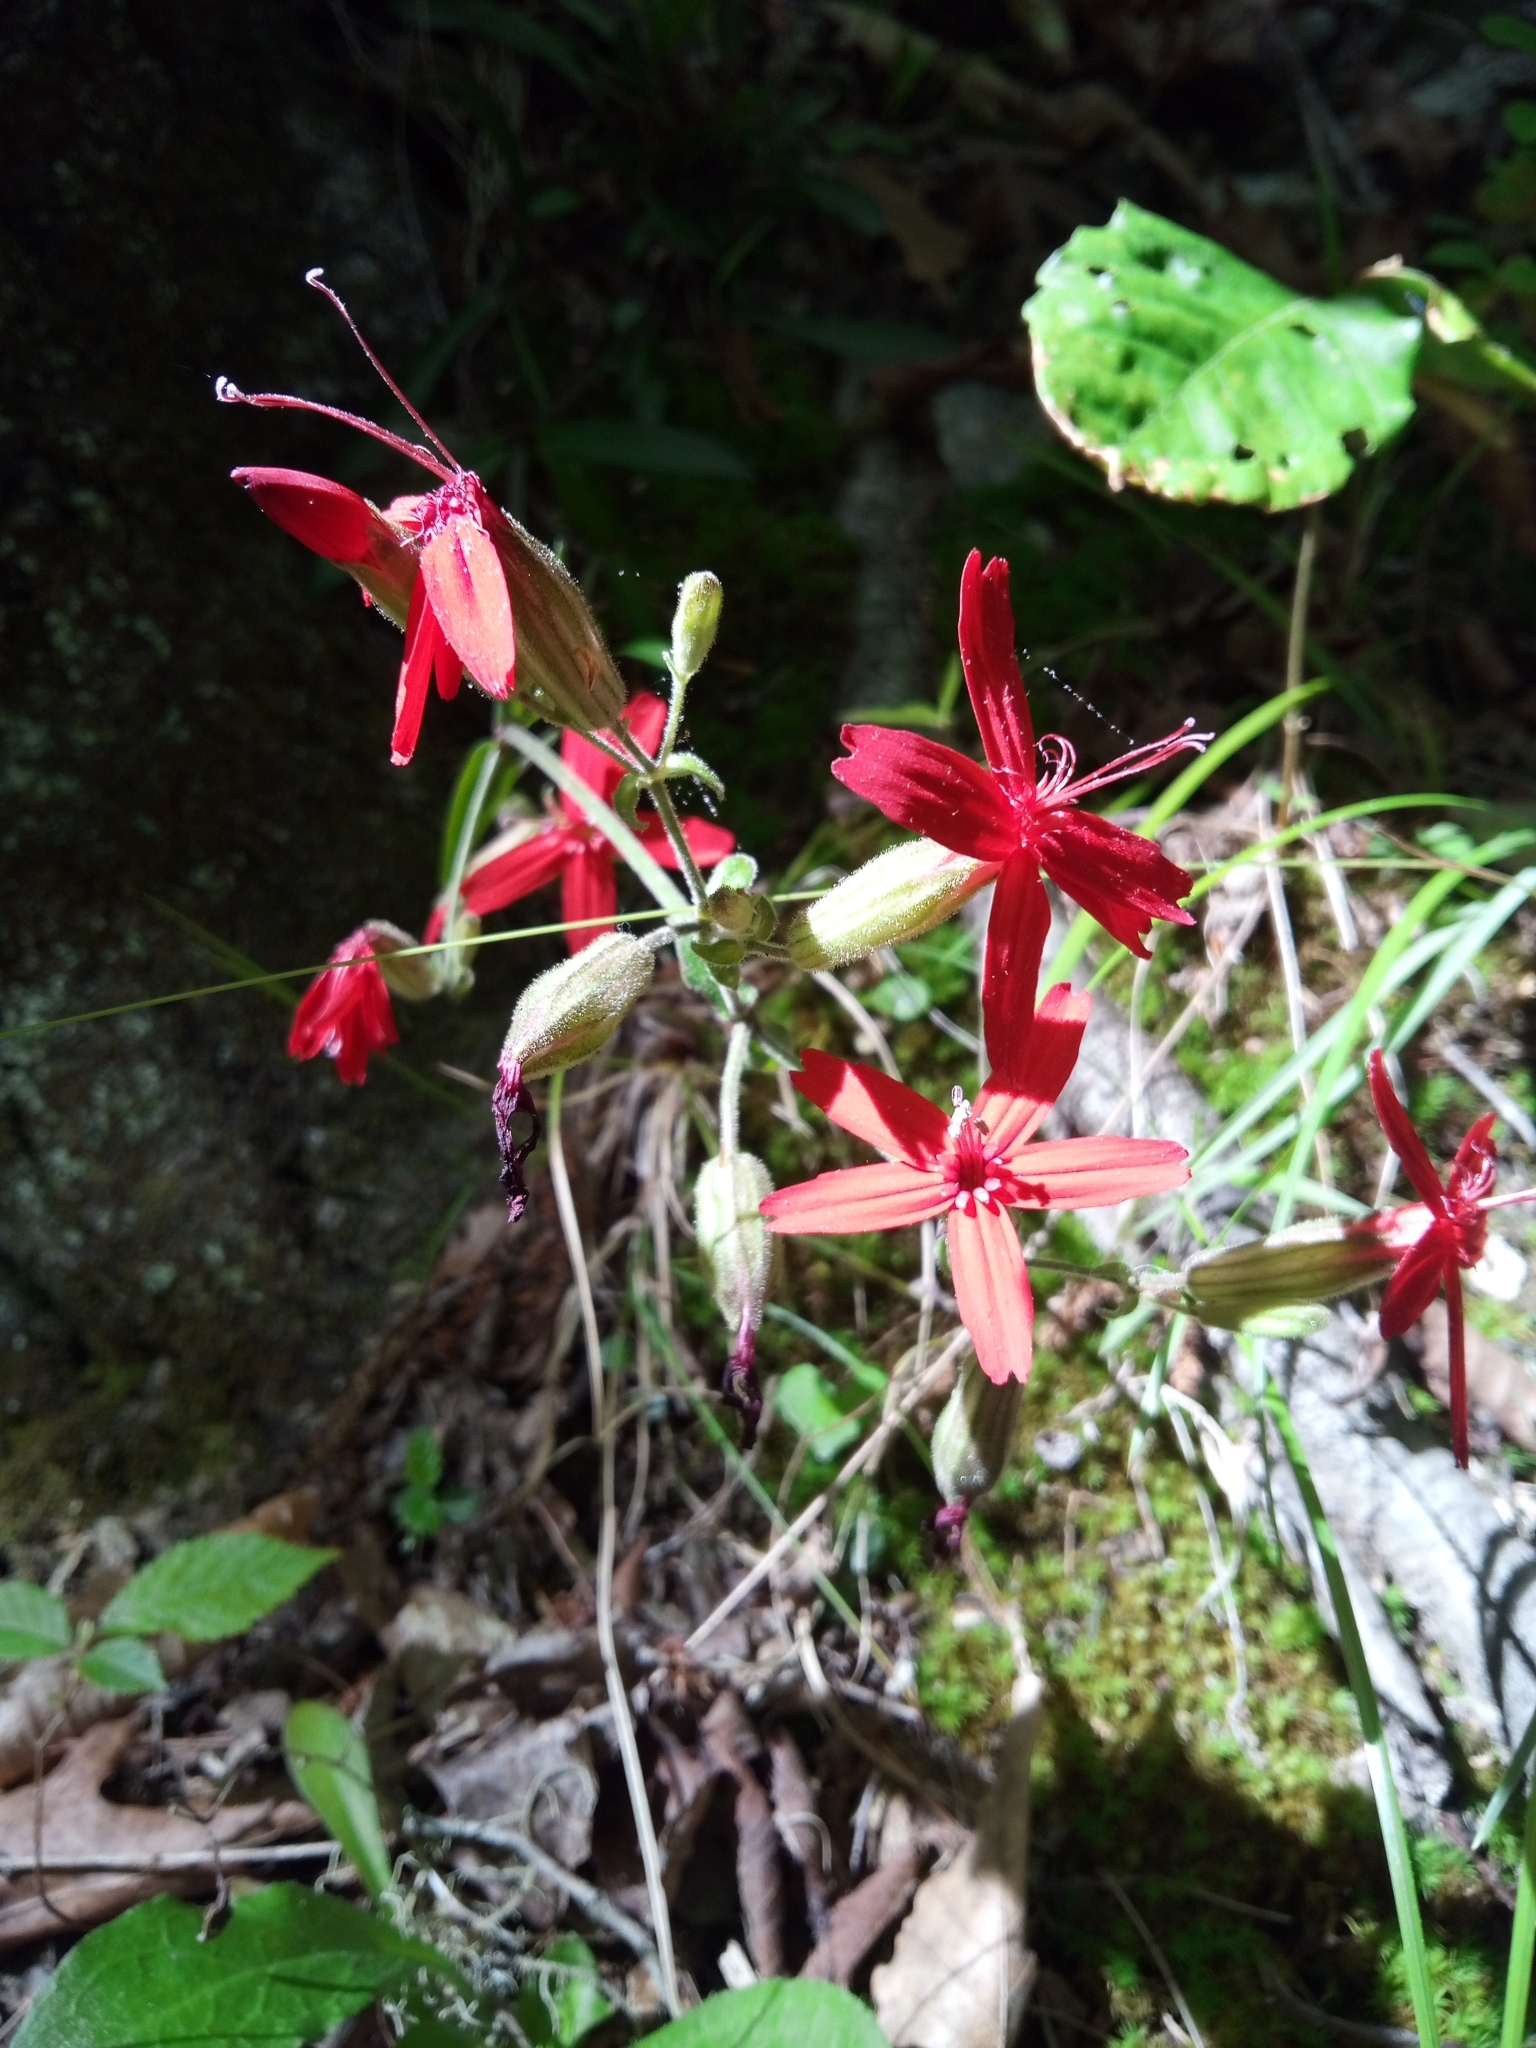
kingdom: Plantae
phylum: Tracheophyta
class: Magnoliopsida
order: Caryophyllales
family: Caryophyllaceae
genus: Silene
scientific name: Silene virginica
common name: Fire-pink
